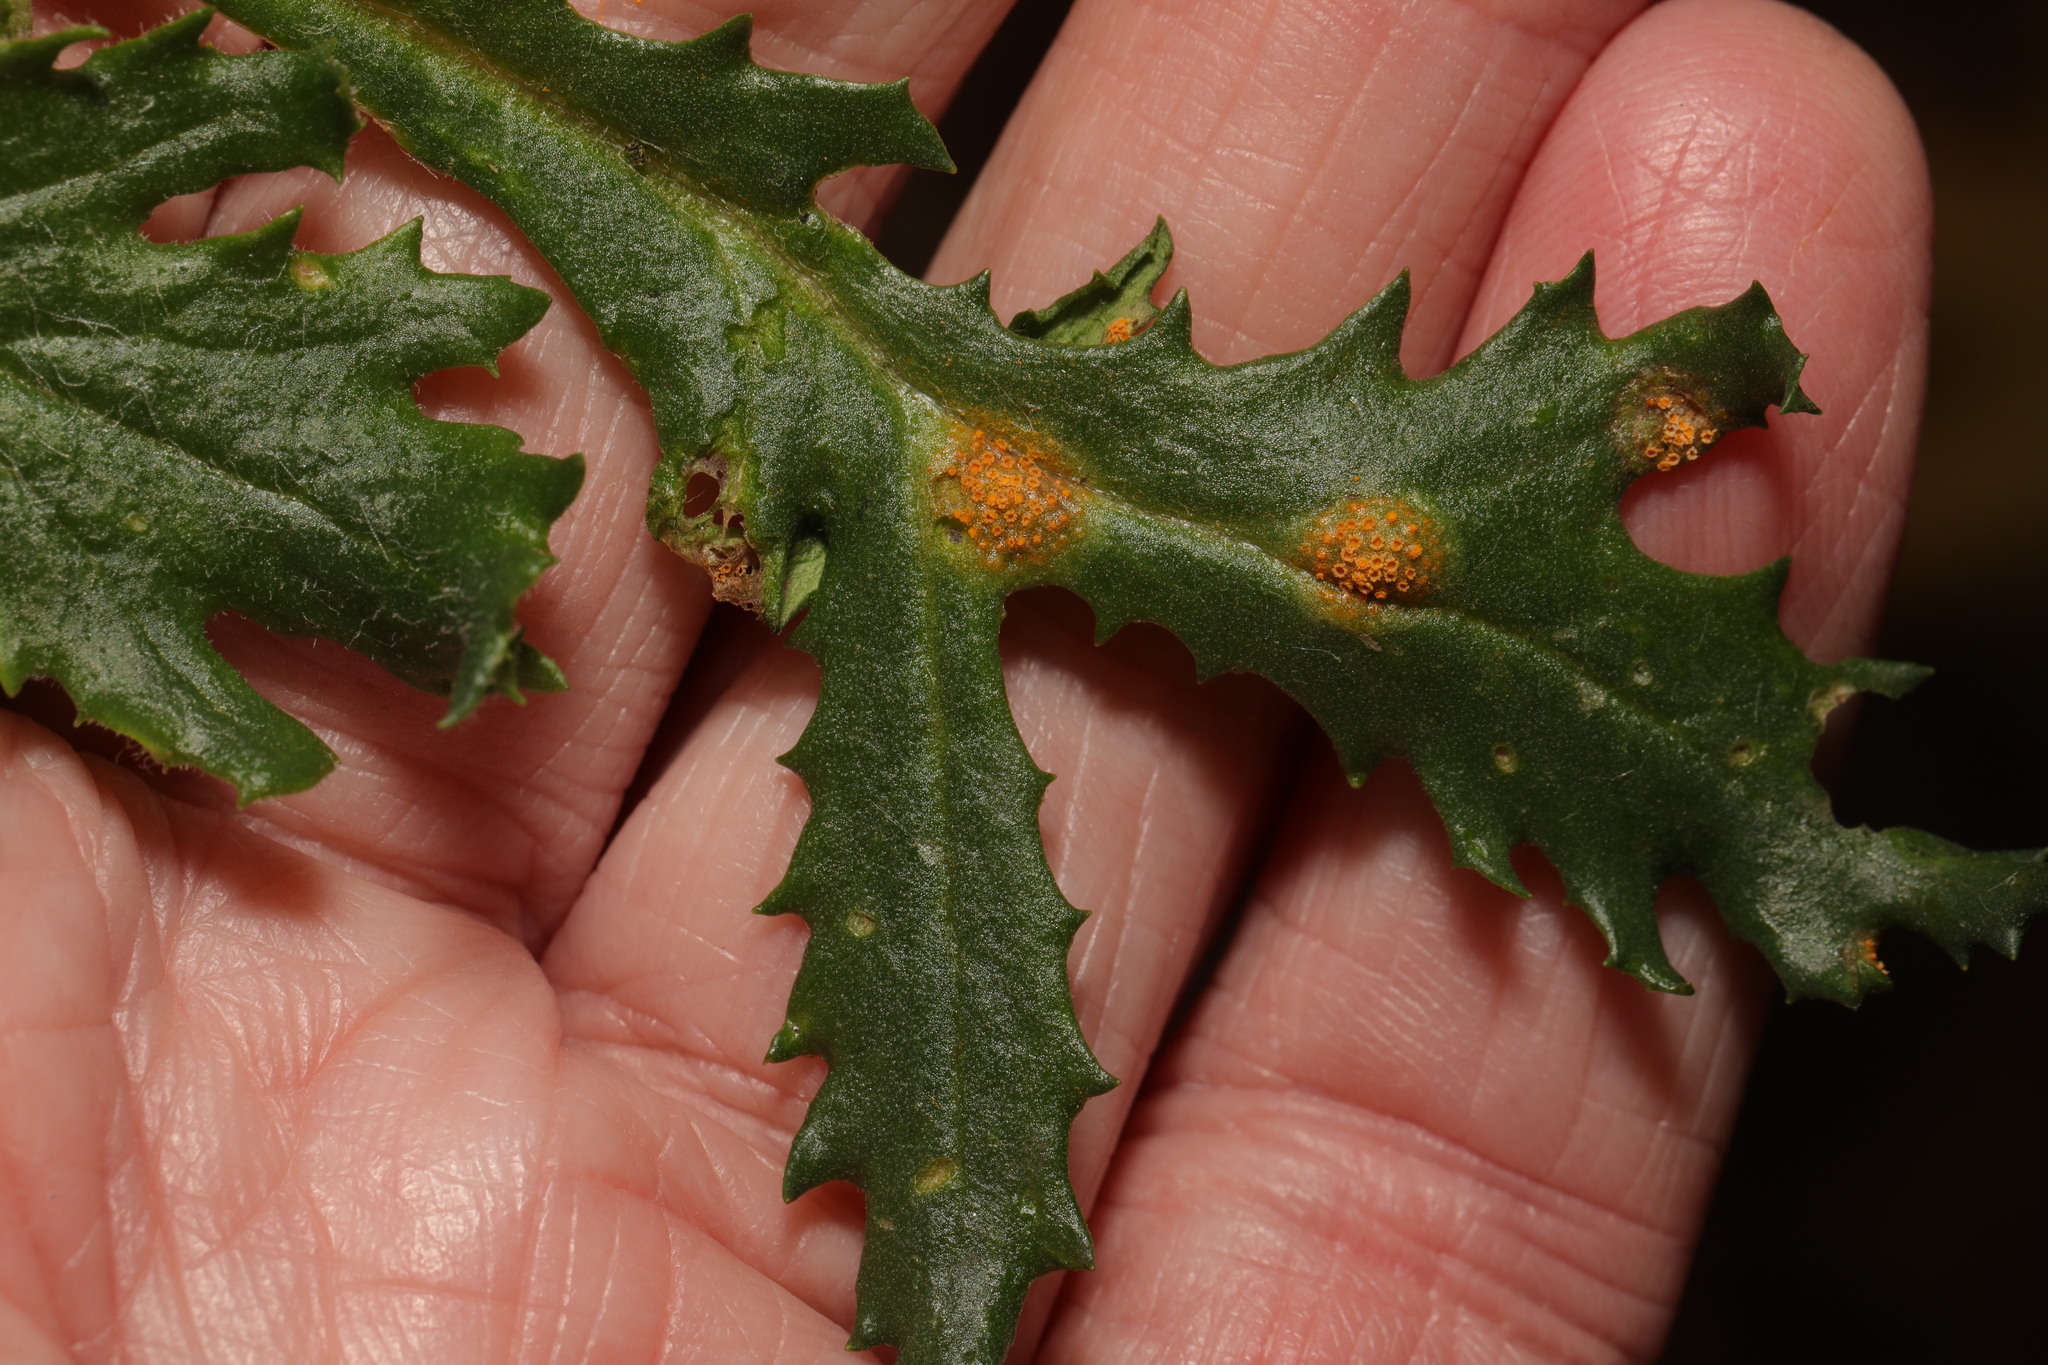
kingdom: Fungi
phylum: Basidiomycota
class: Pucciniomycetes
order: Pucciniales
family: Pucciniaceae
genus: Puccinia
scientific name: Puccinia lagenophorae
